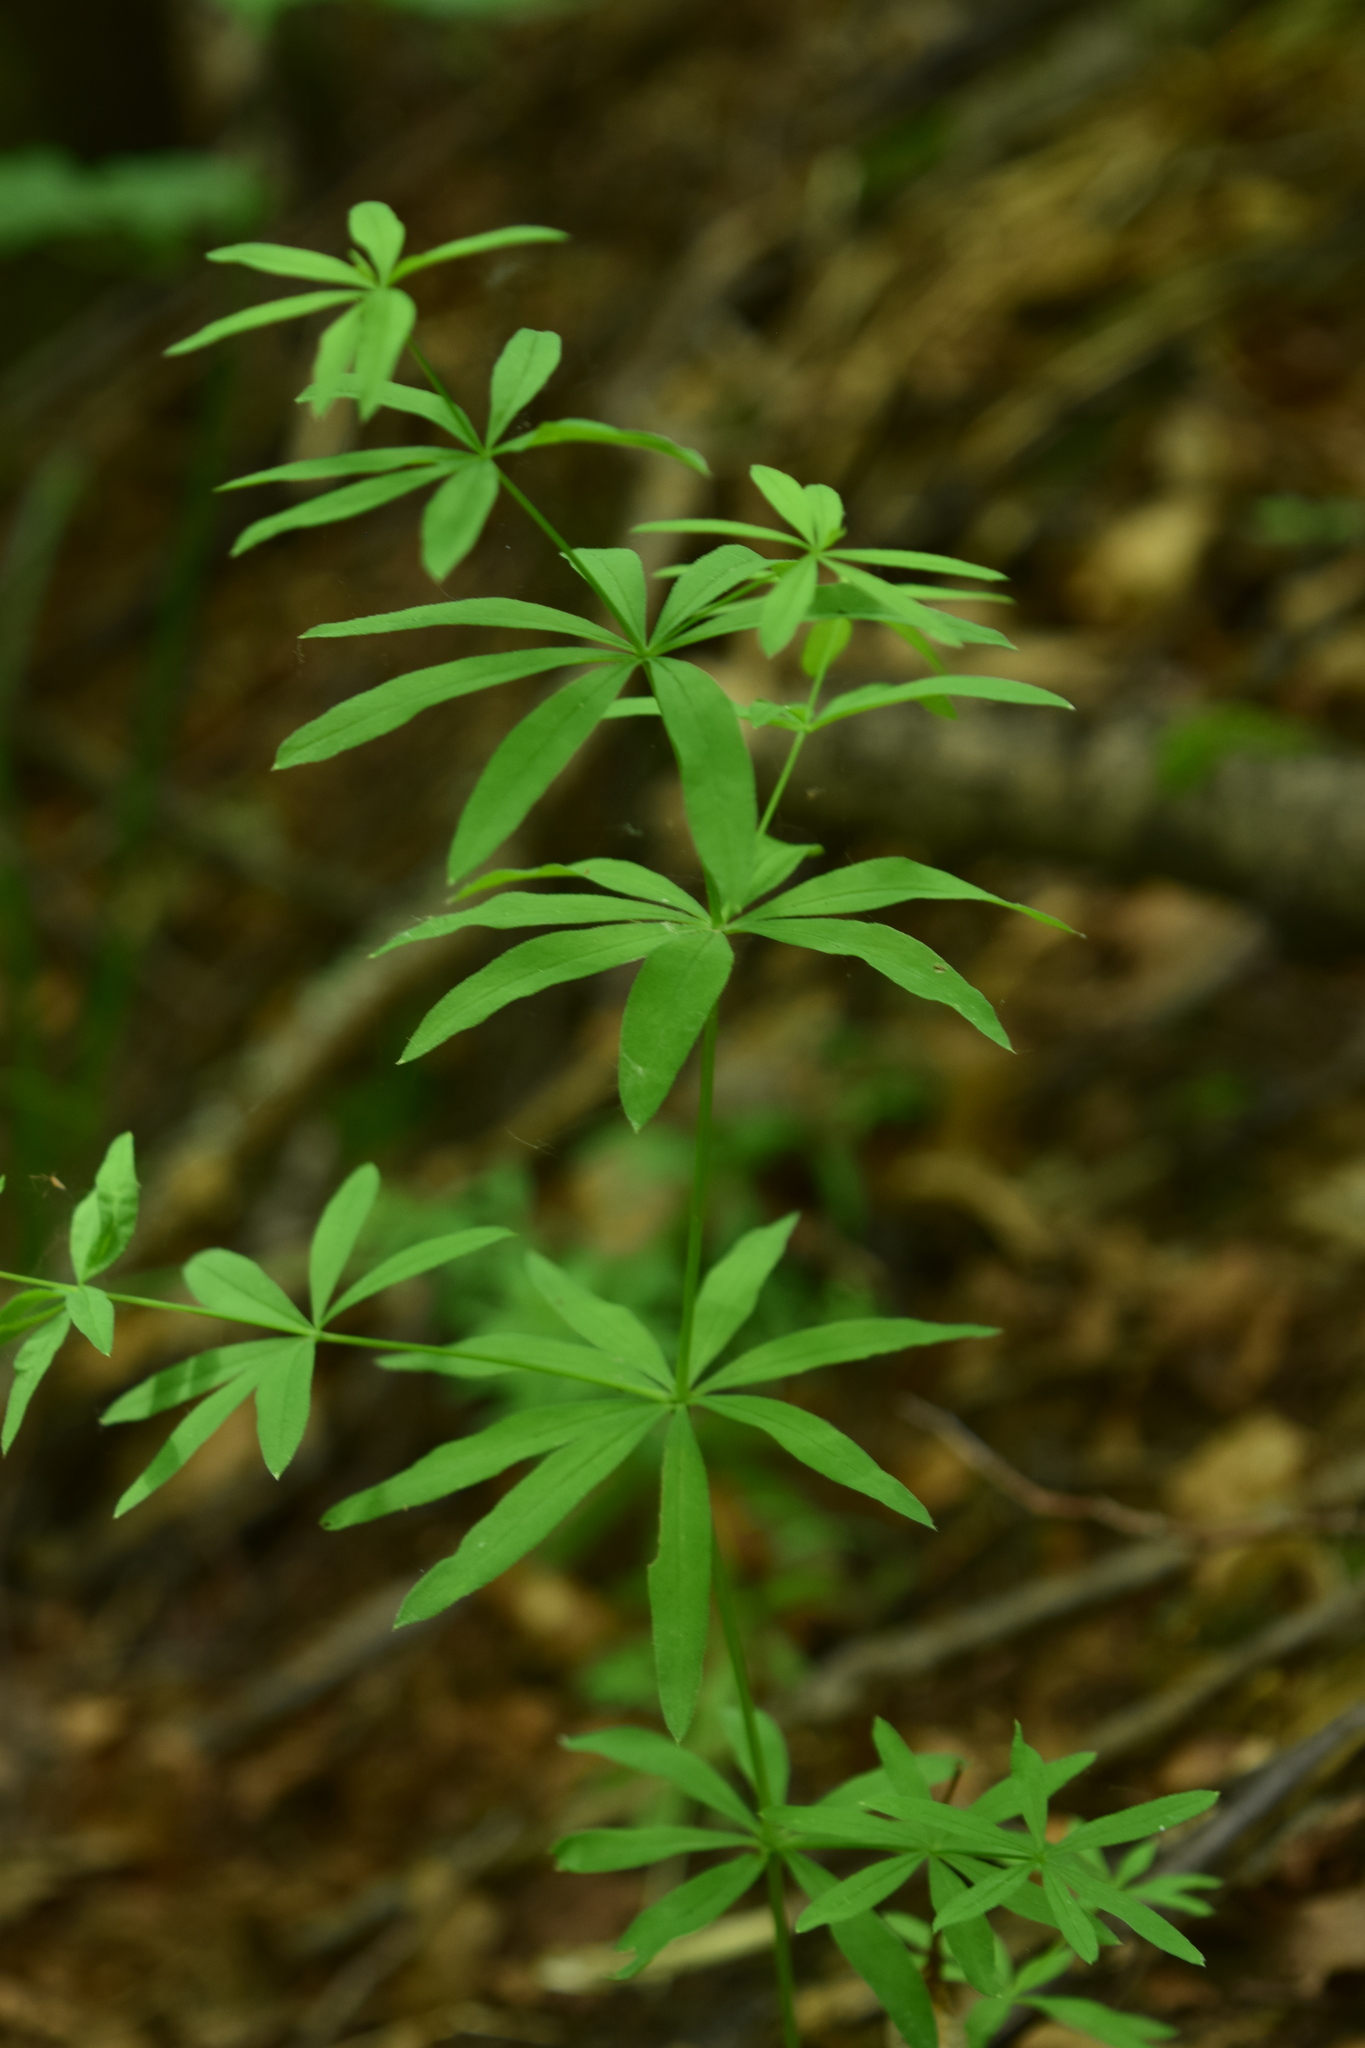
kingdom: Plantae
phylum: Tracheophyta
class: Magnoliopsida
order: Gentianales
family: Rubiaceae
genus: Galium
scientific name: Galium intermedium
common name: Bedstraw
